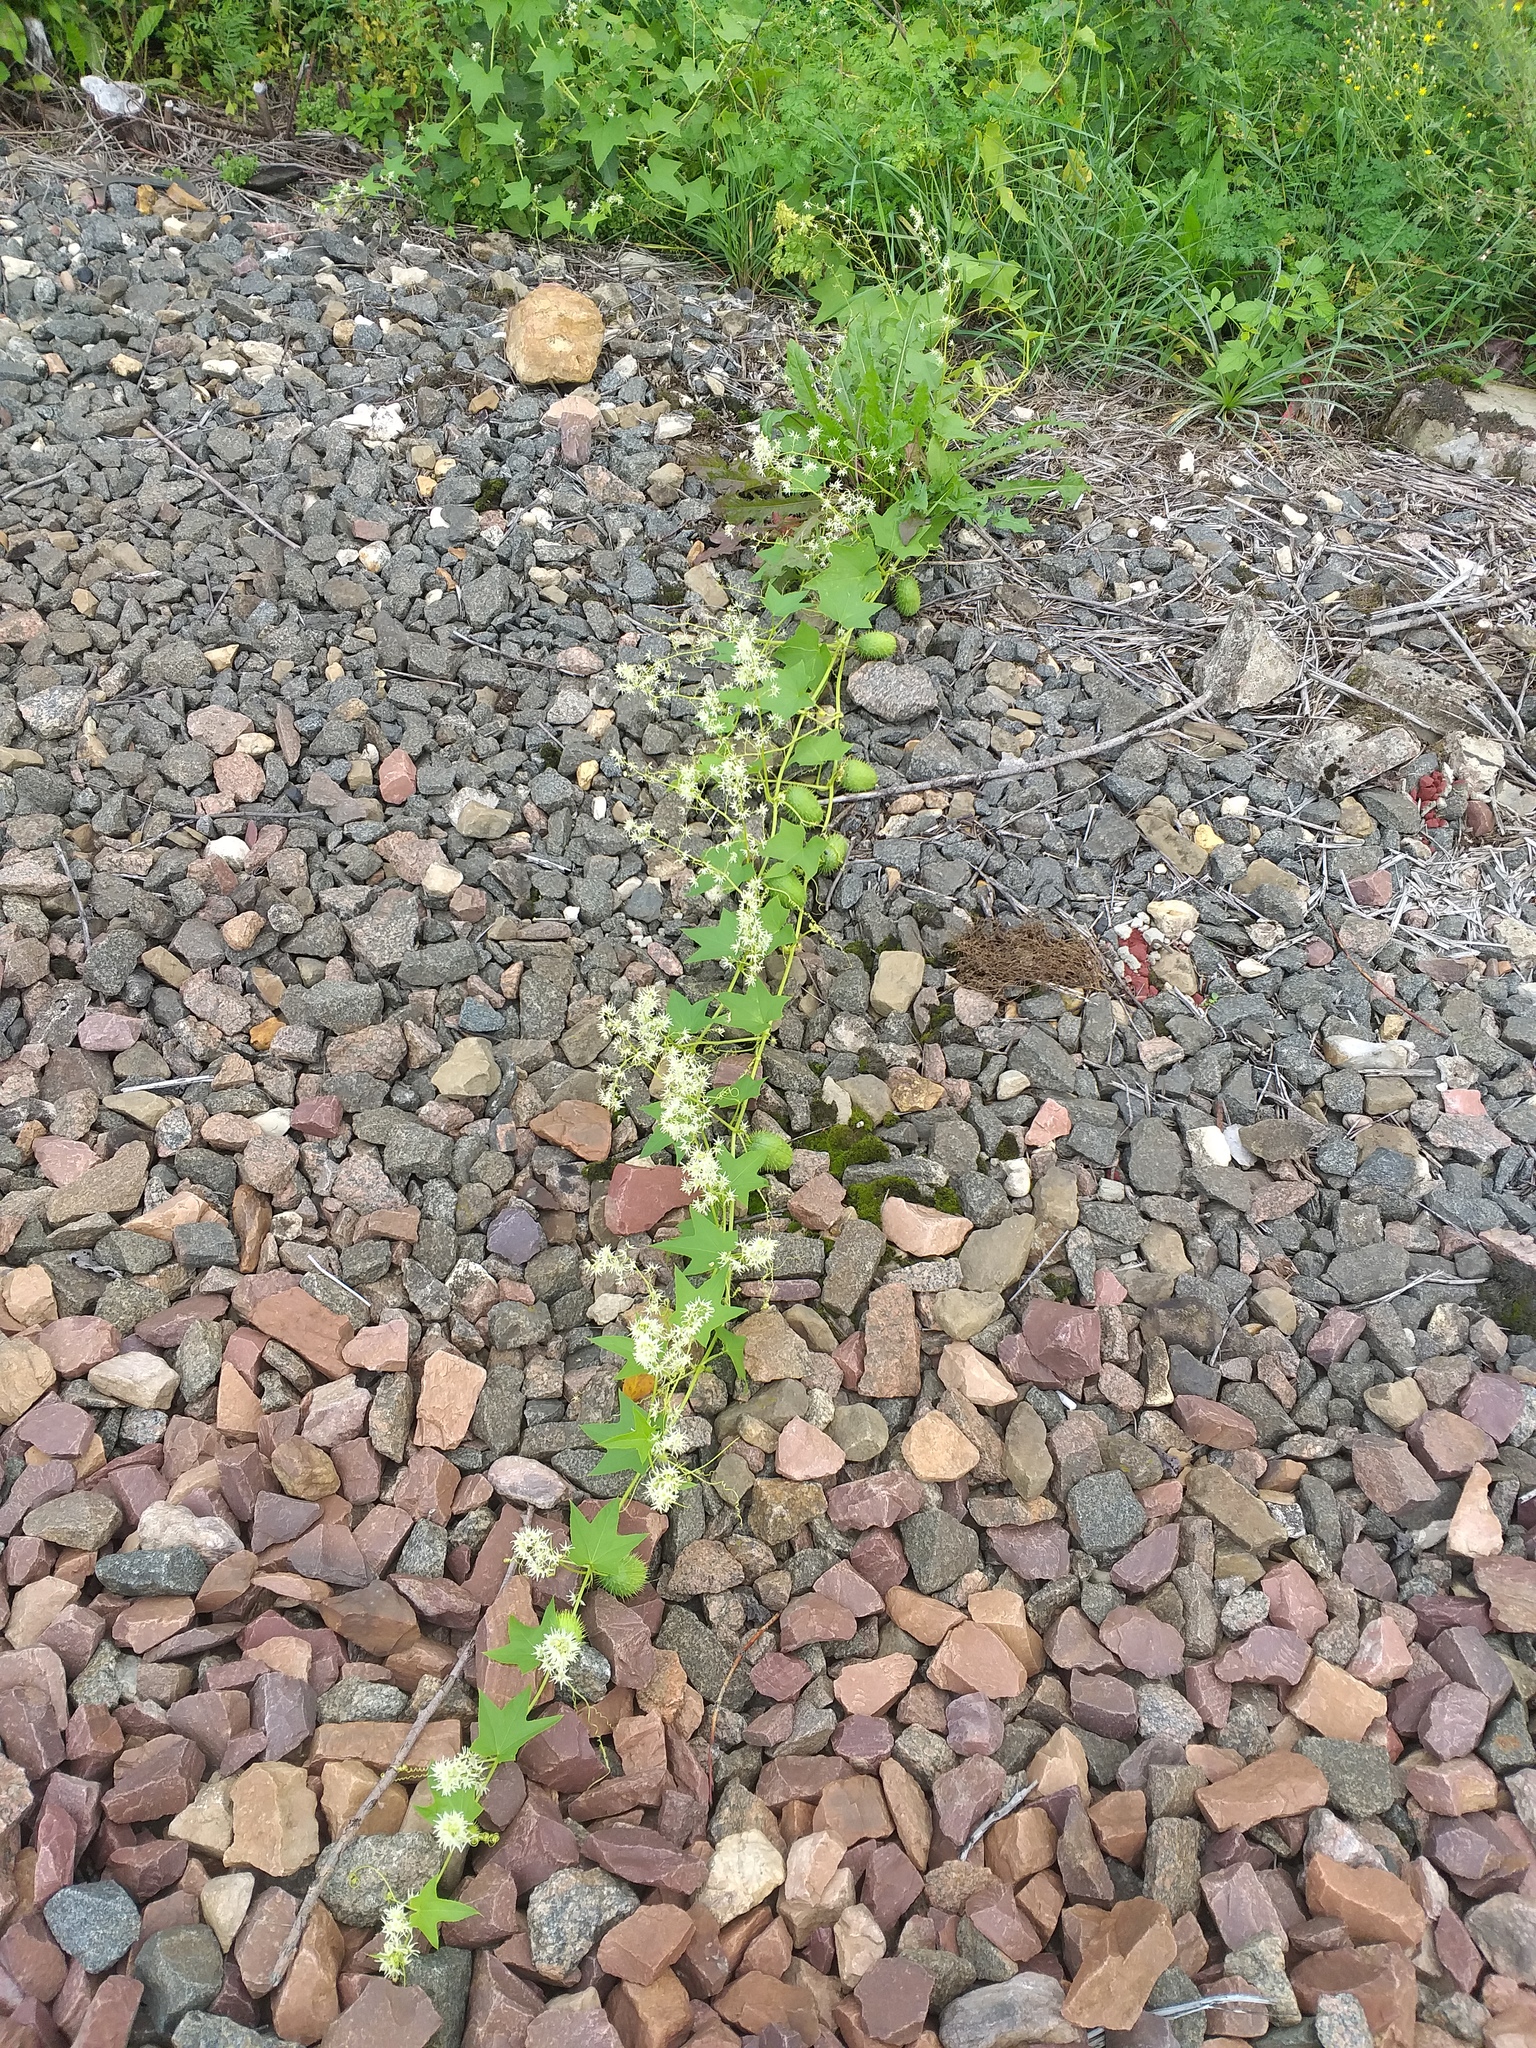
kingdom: Plantae
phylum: Tracheophyta
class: Magnoliopsida
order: Cucurbitales
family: Cucurbitaceae
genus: Echinocystis
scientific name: Echinocystis lobata
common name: Wild cucumber
